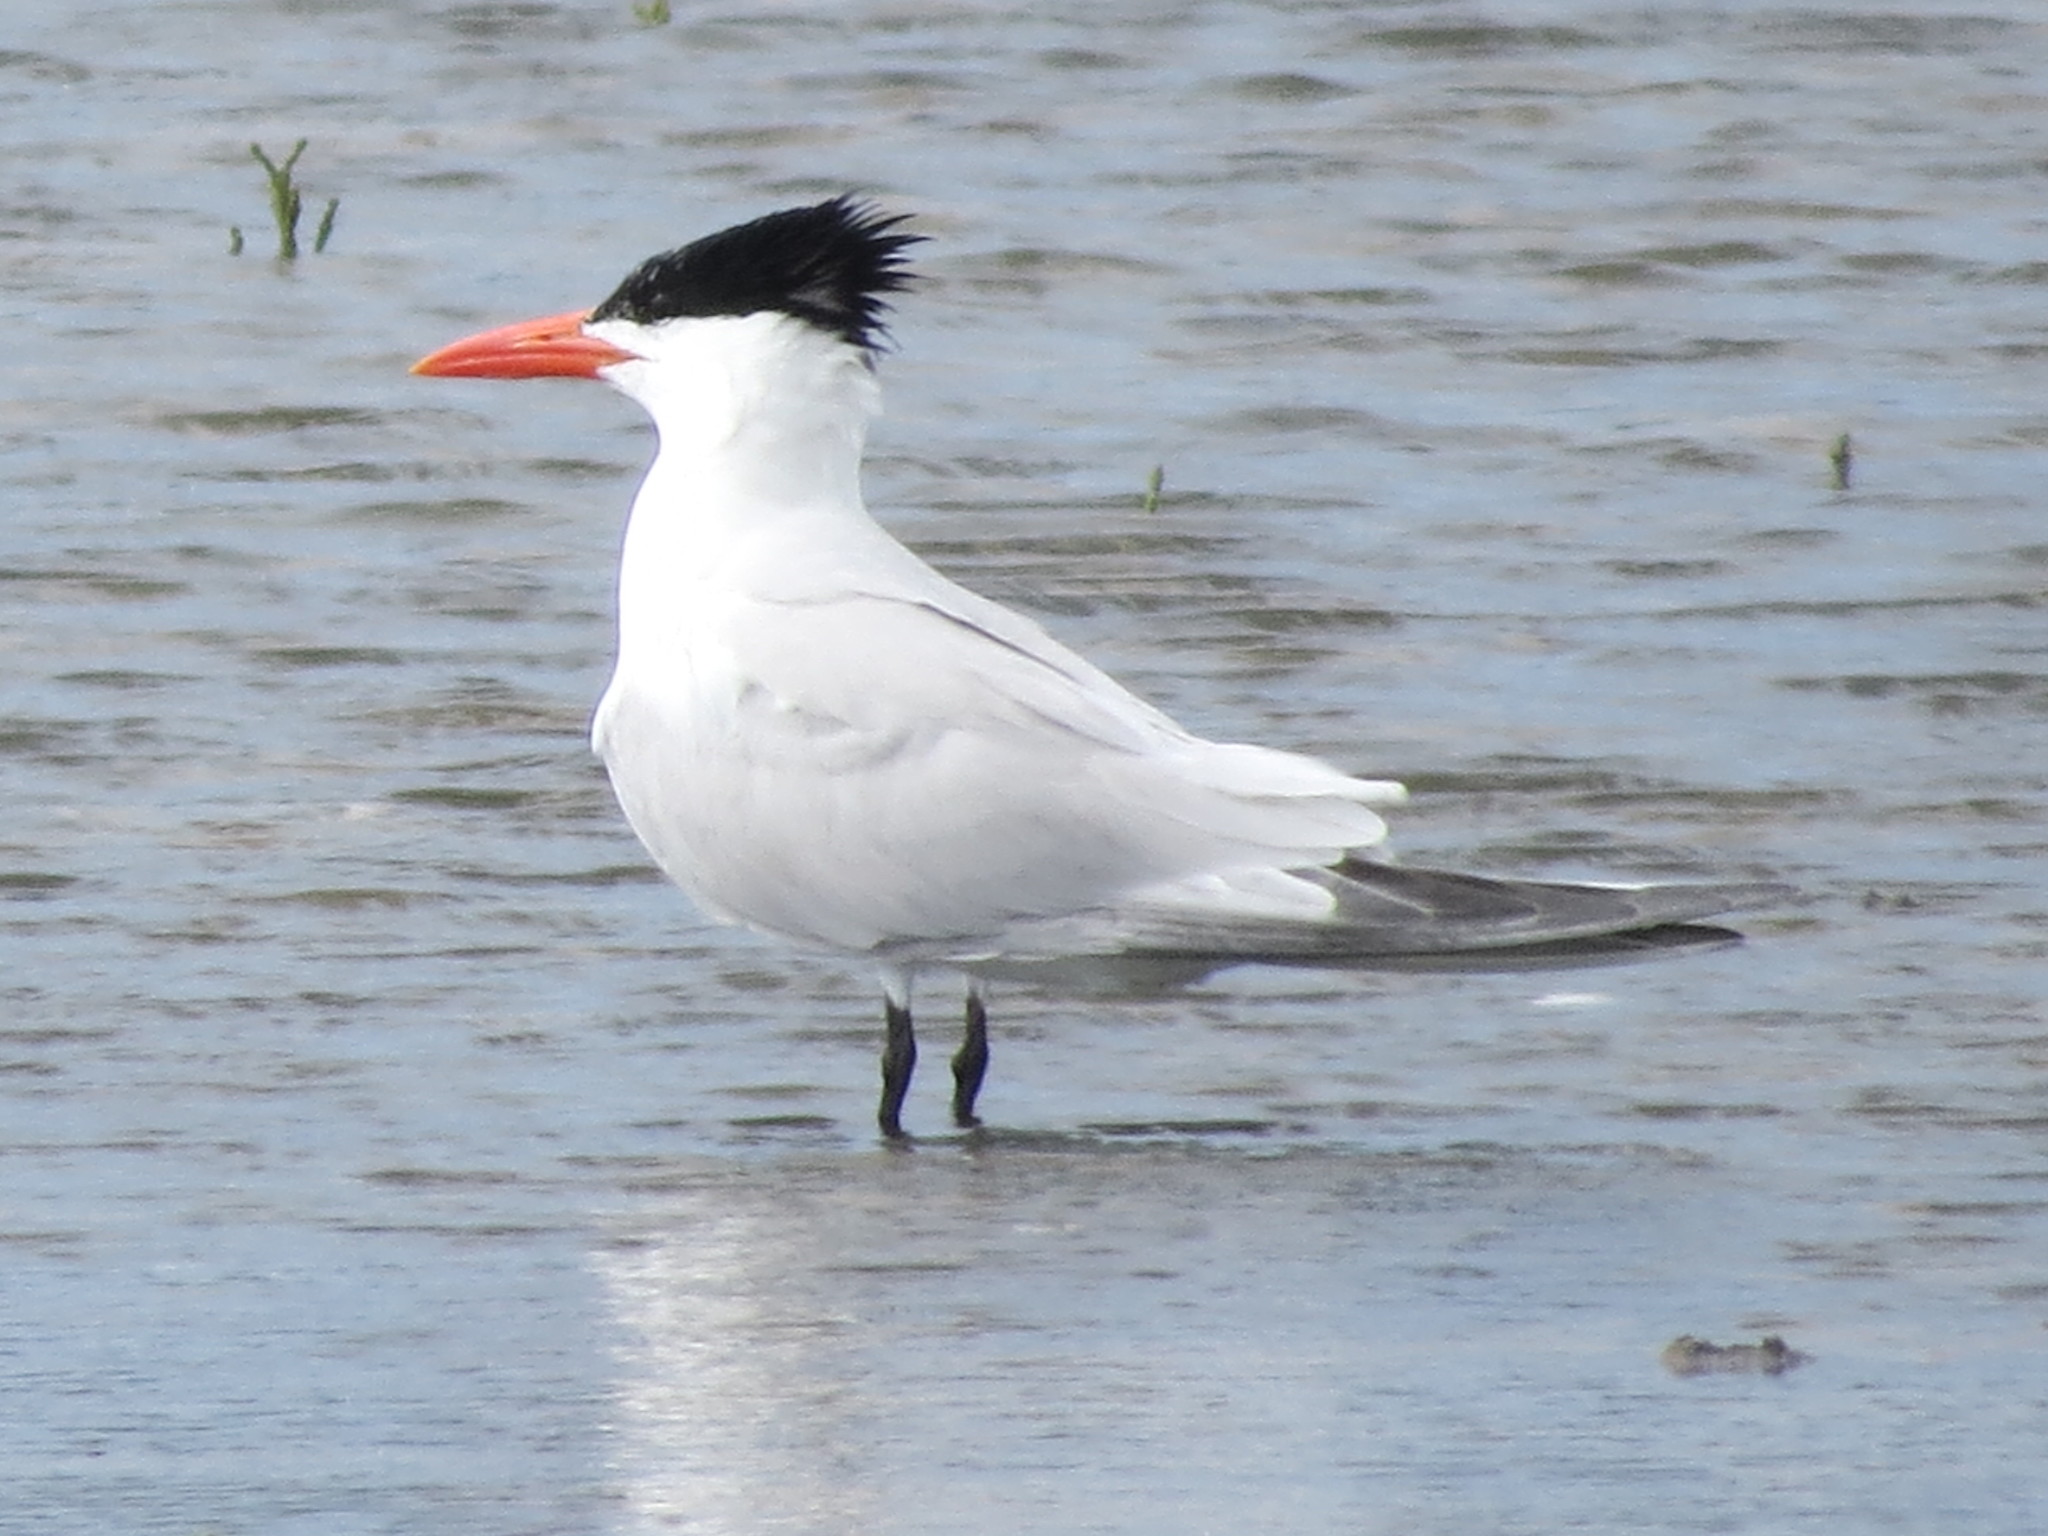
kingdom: Animalia
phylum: Chordata
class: Aves
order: Charadriiformes
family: Laridae
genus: Thalasseus
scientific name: Thalasseus maximus
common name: Royal tern
